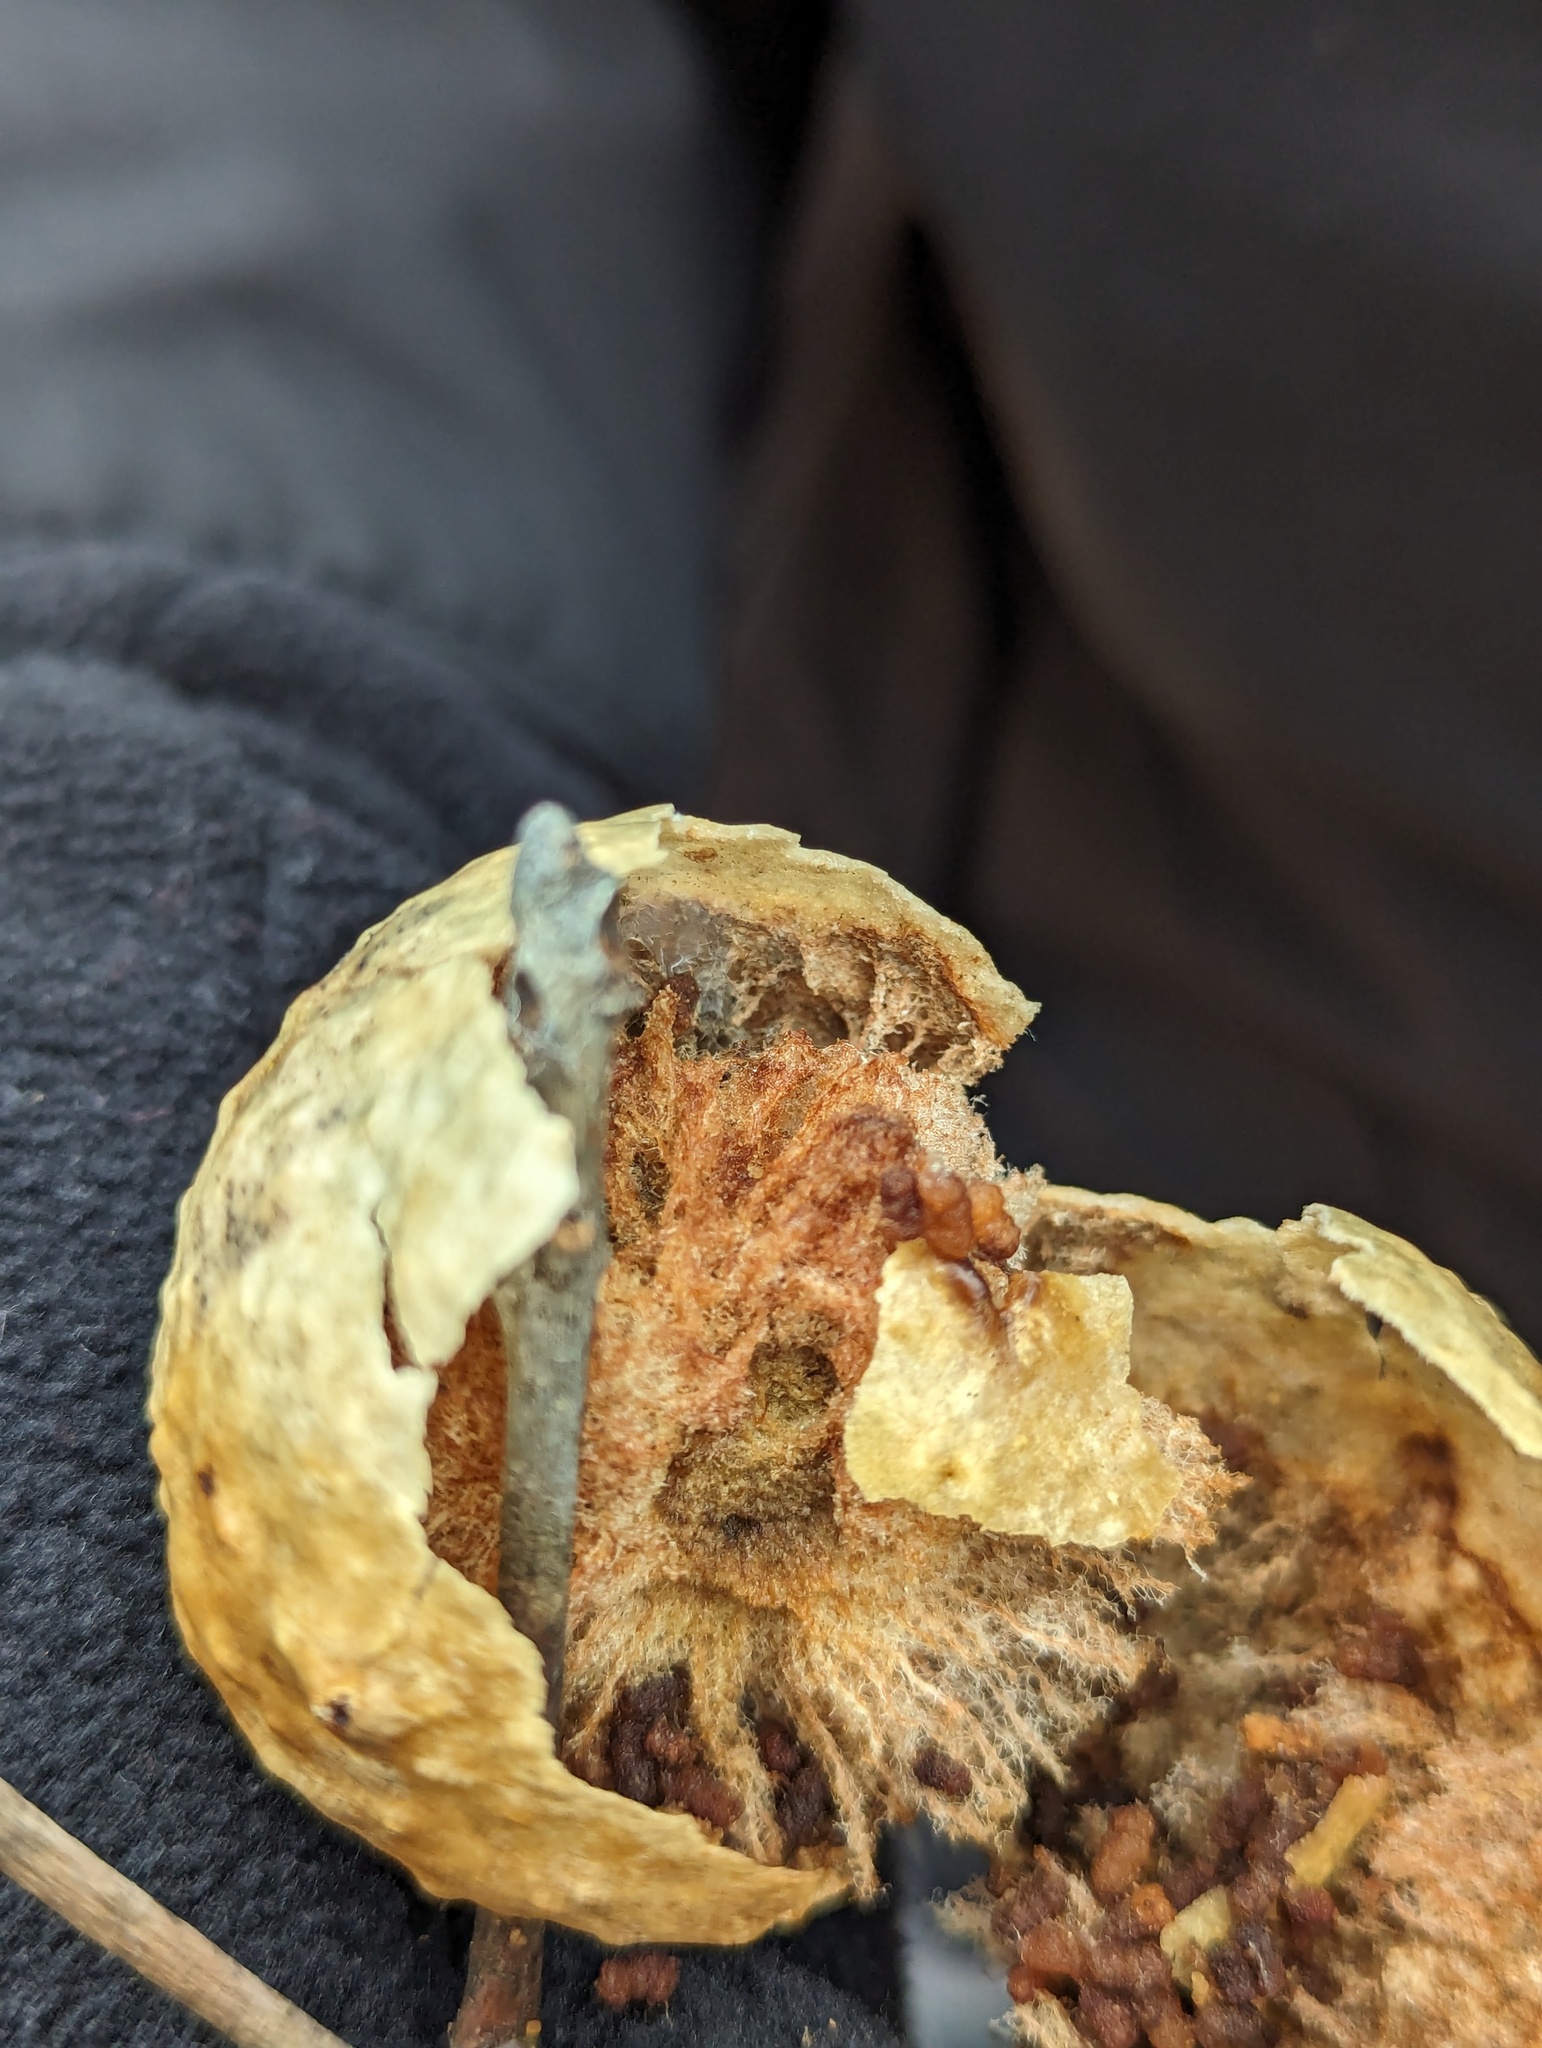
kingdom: Animalia
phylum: Arthropoda
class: Insecta
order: Hymenoptera
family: Cynipidae
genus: Amphibolips
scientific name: Amphibolips
